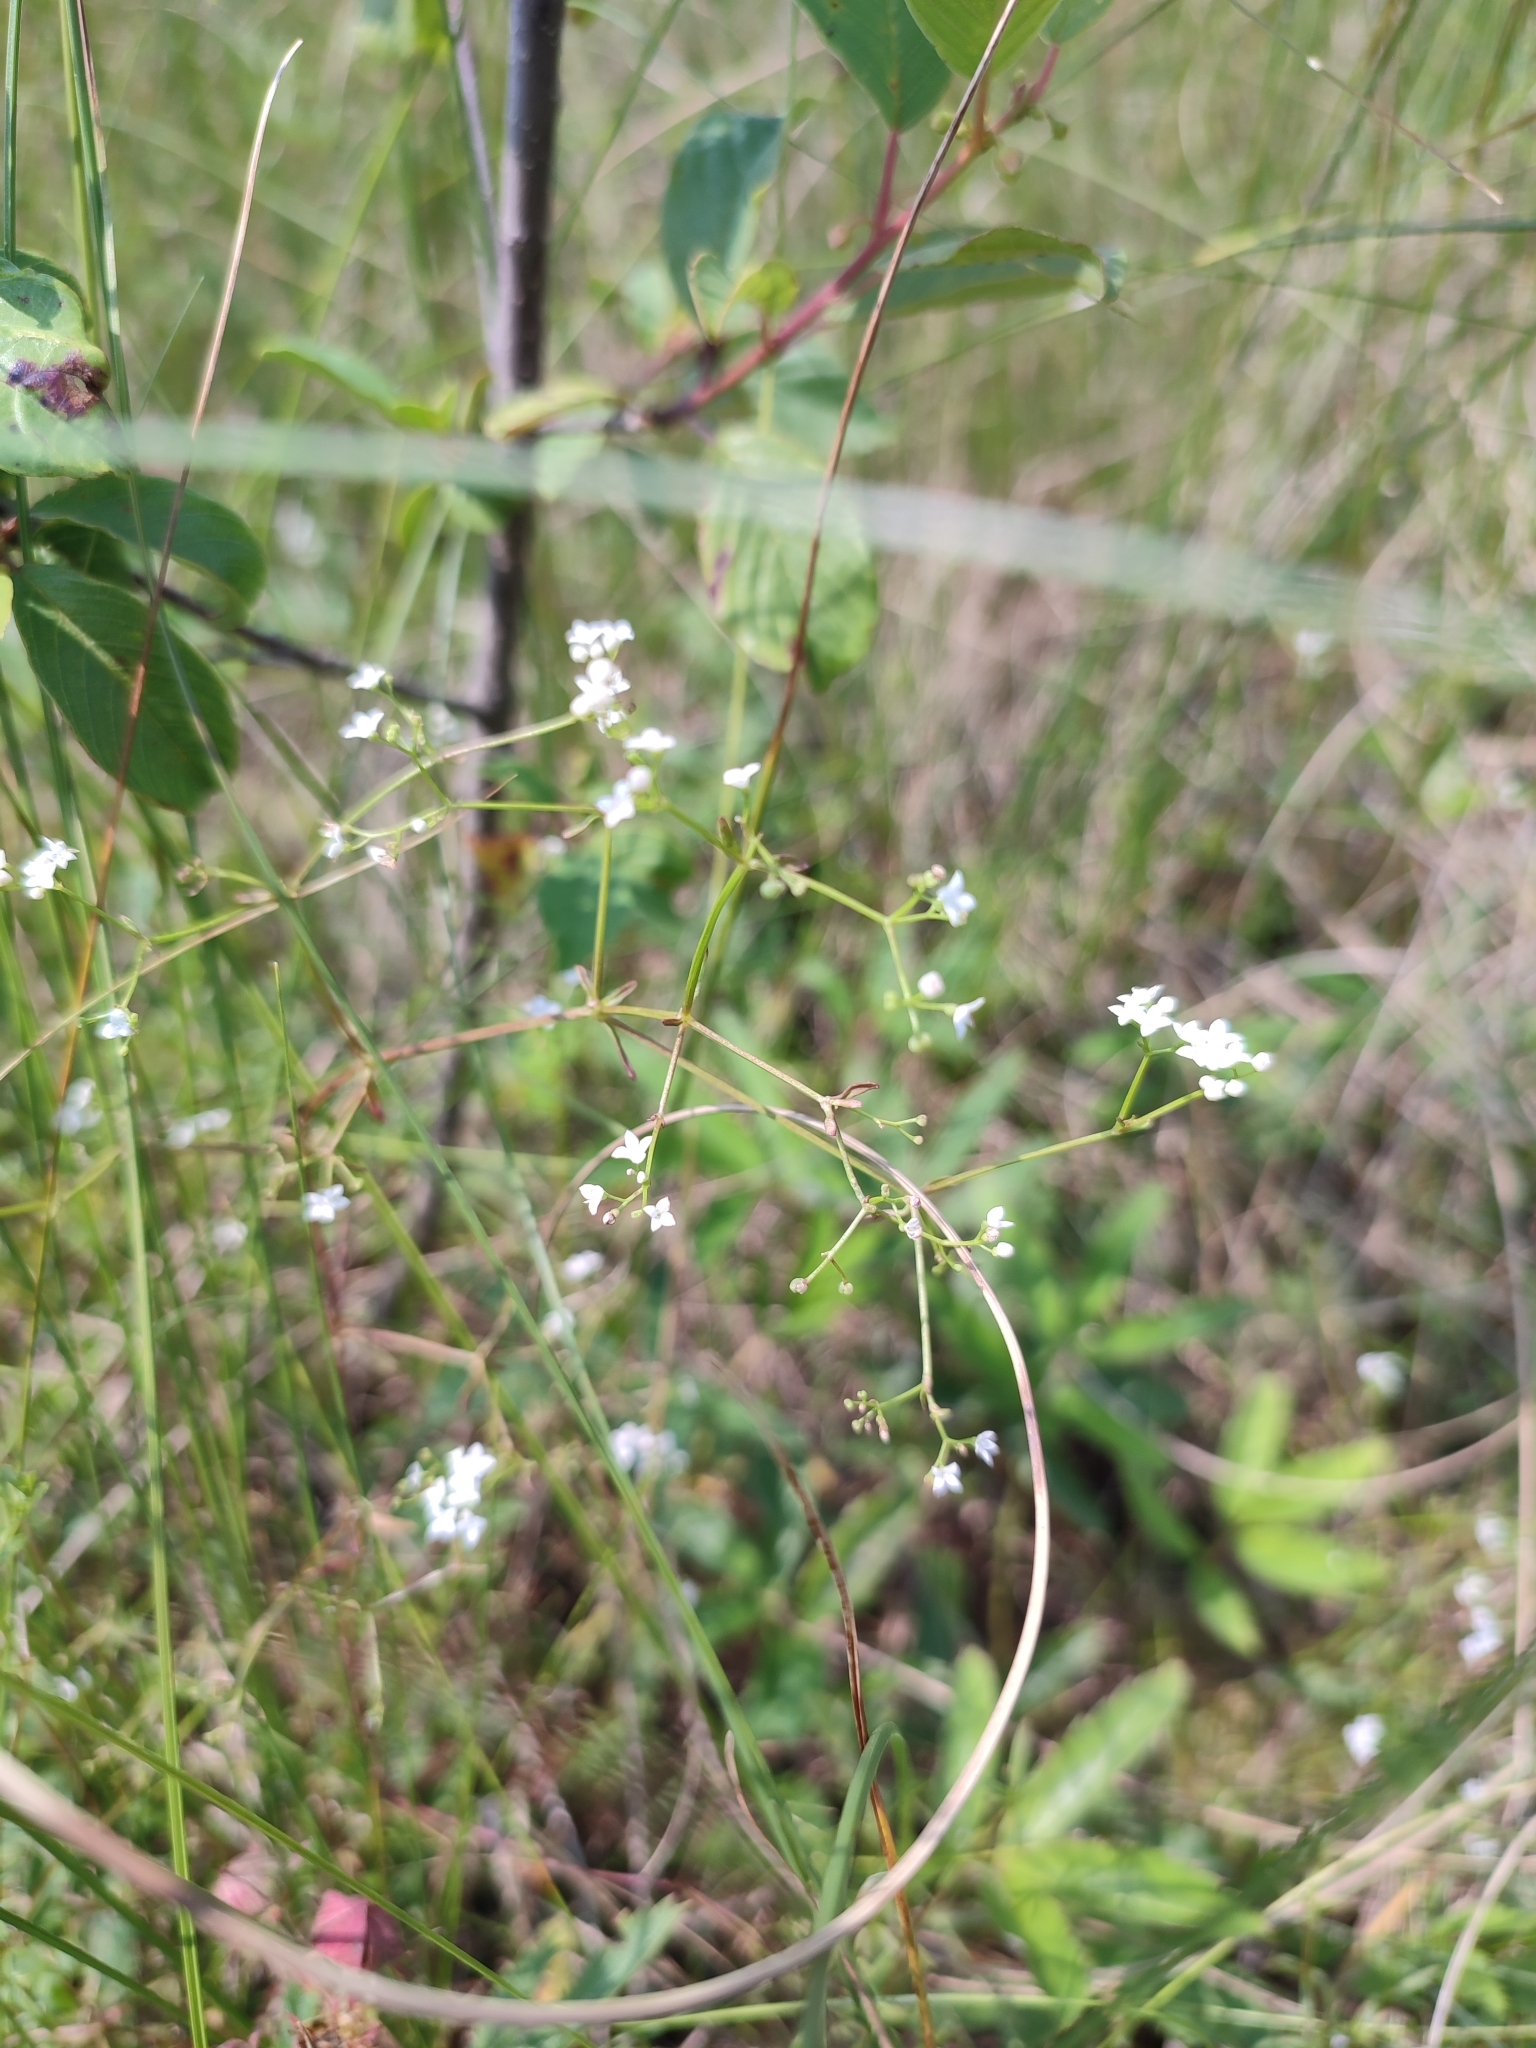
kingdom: Plantae
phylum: Tracheophyta
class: Magnoliopsida
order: Gentianales
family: Rubiaceae
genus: Galium
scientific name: Galium palustre
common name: Common marsh-bedstraw
